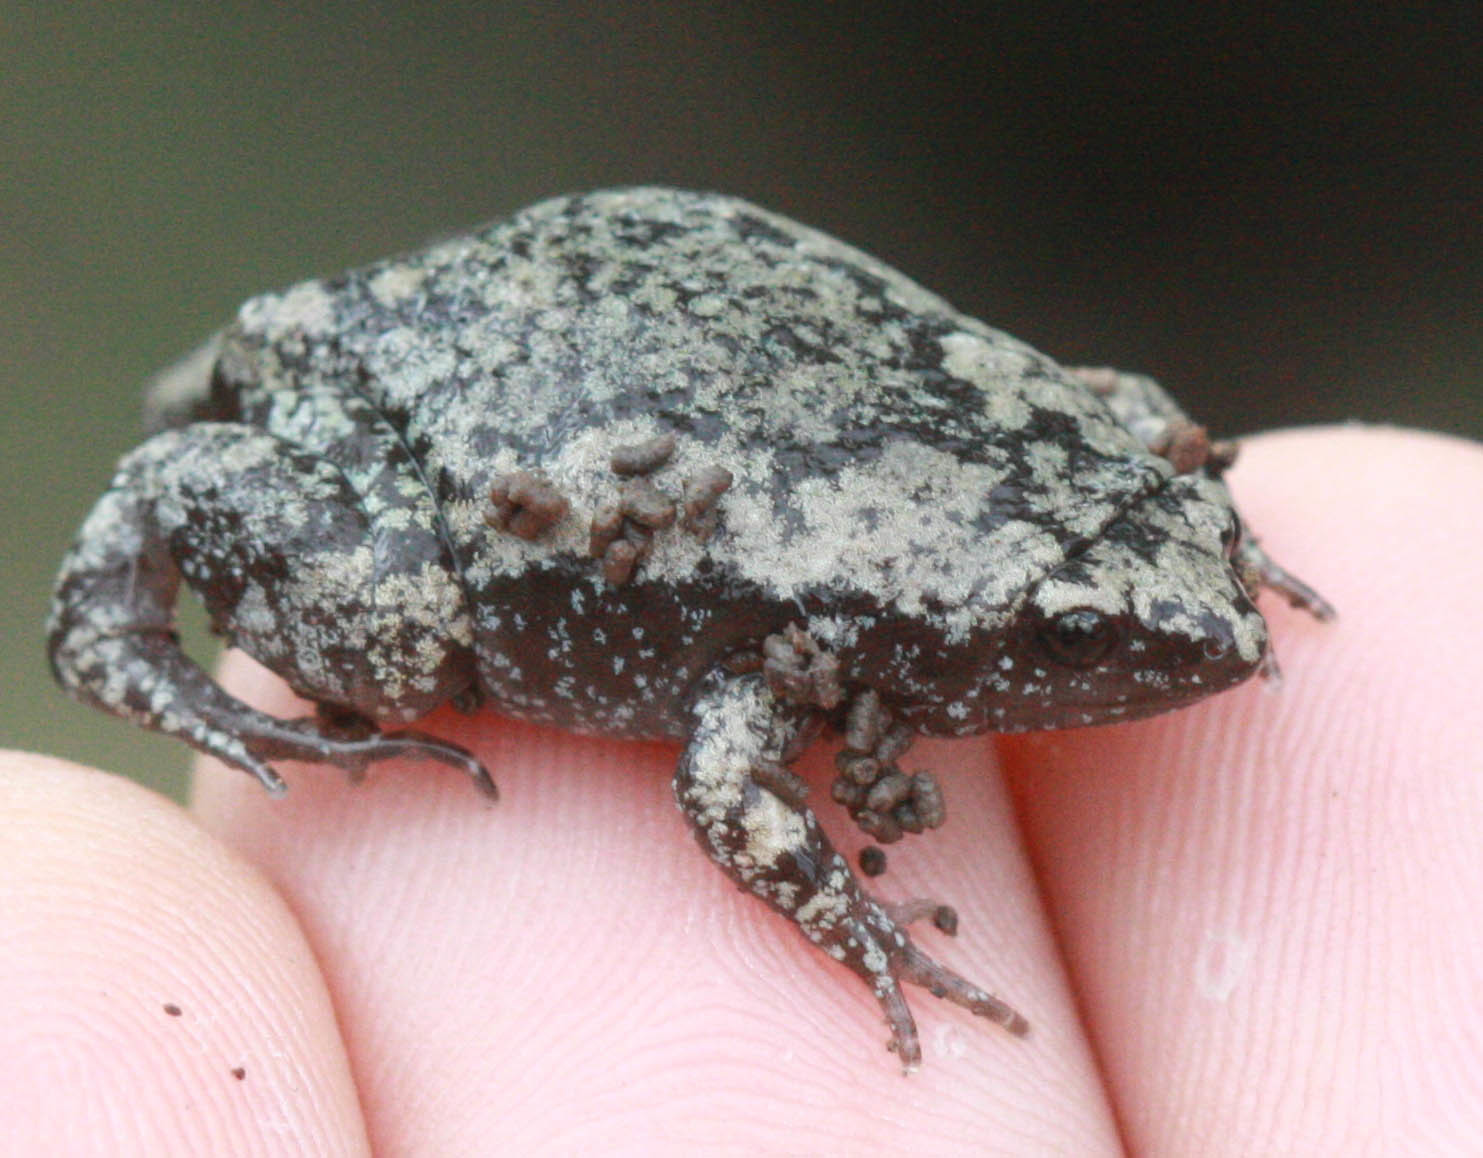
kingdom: Animalia
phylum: Chordata
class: Amphibia
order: Anura
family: Microhylidae
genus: Gastrophryne
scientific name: Gastrophryne carolinensis
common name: Eastern narrowmouth toad
